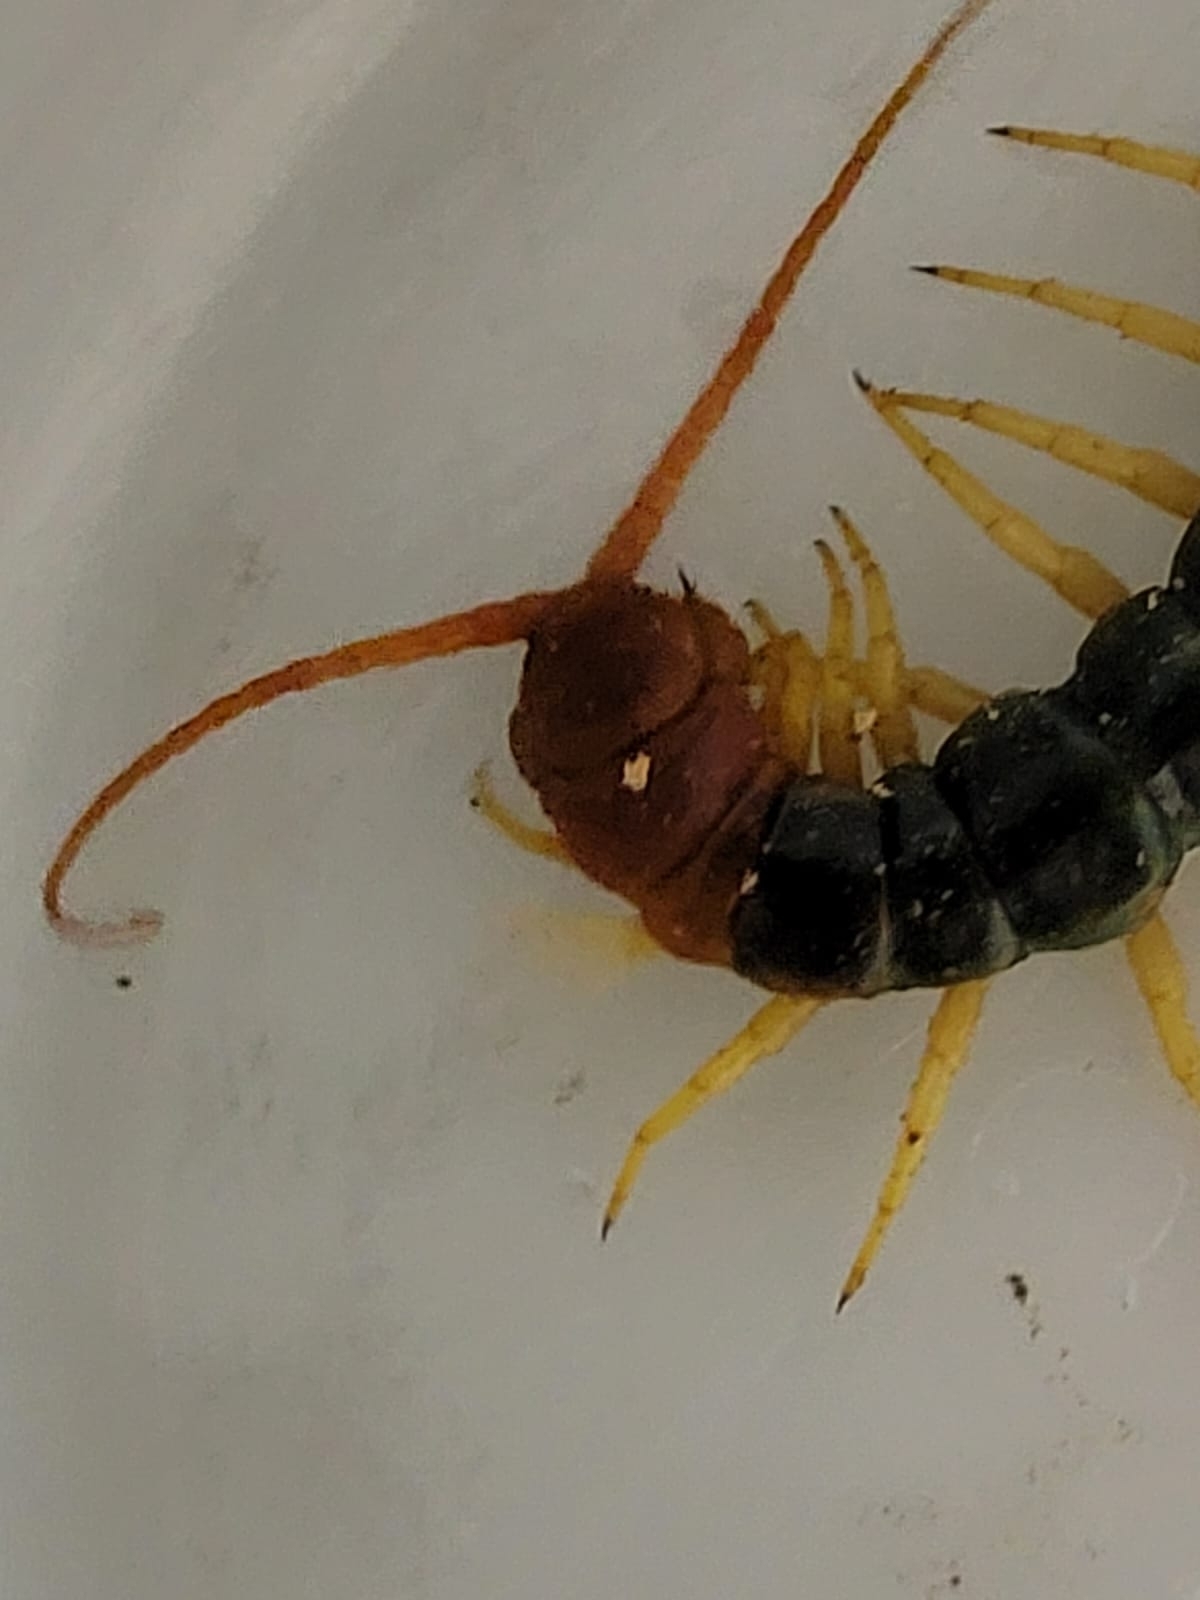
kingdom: Animalia
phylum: Arthropoda
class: Chilopoda
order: Scolopendromorpha
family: Scolopendridae
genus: Scolopendra
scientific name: Scolopendra heros
